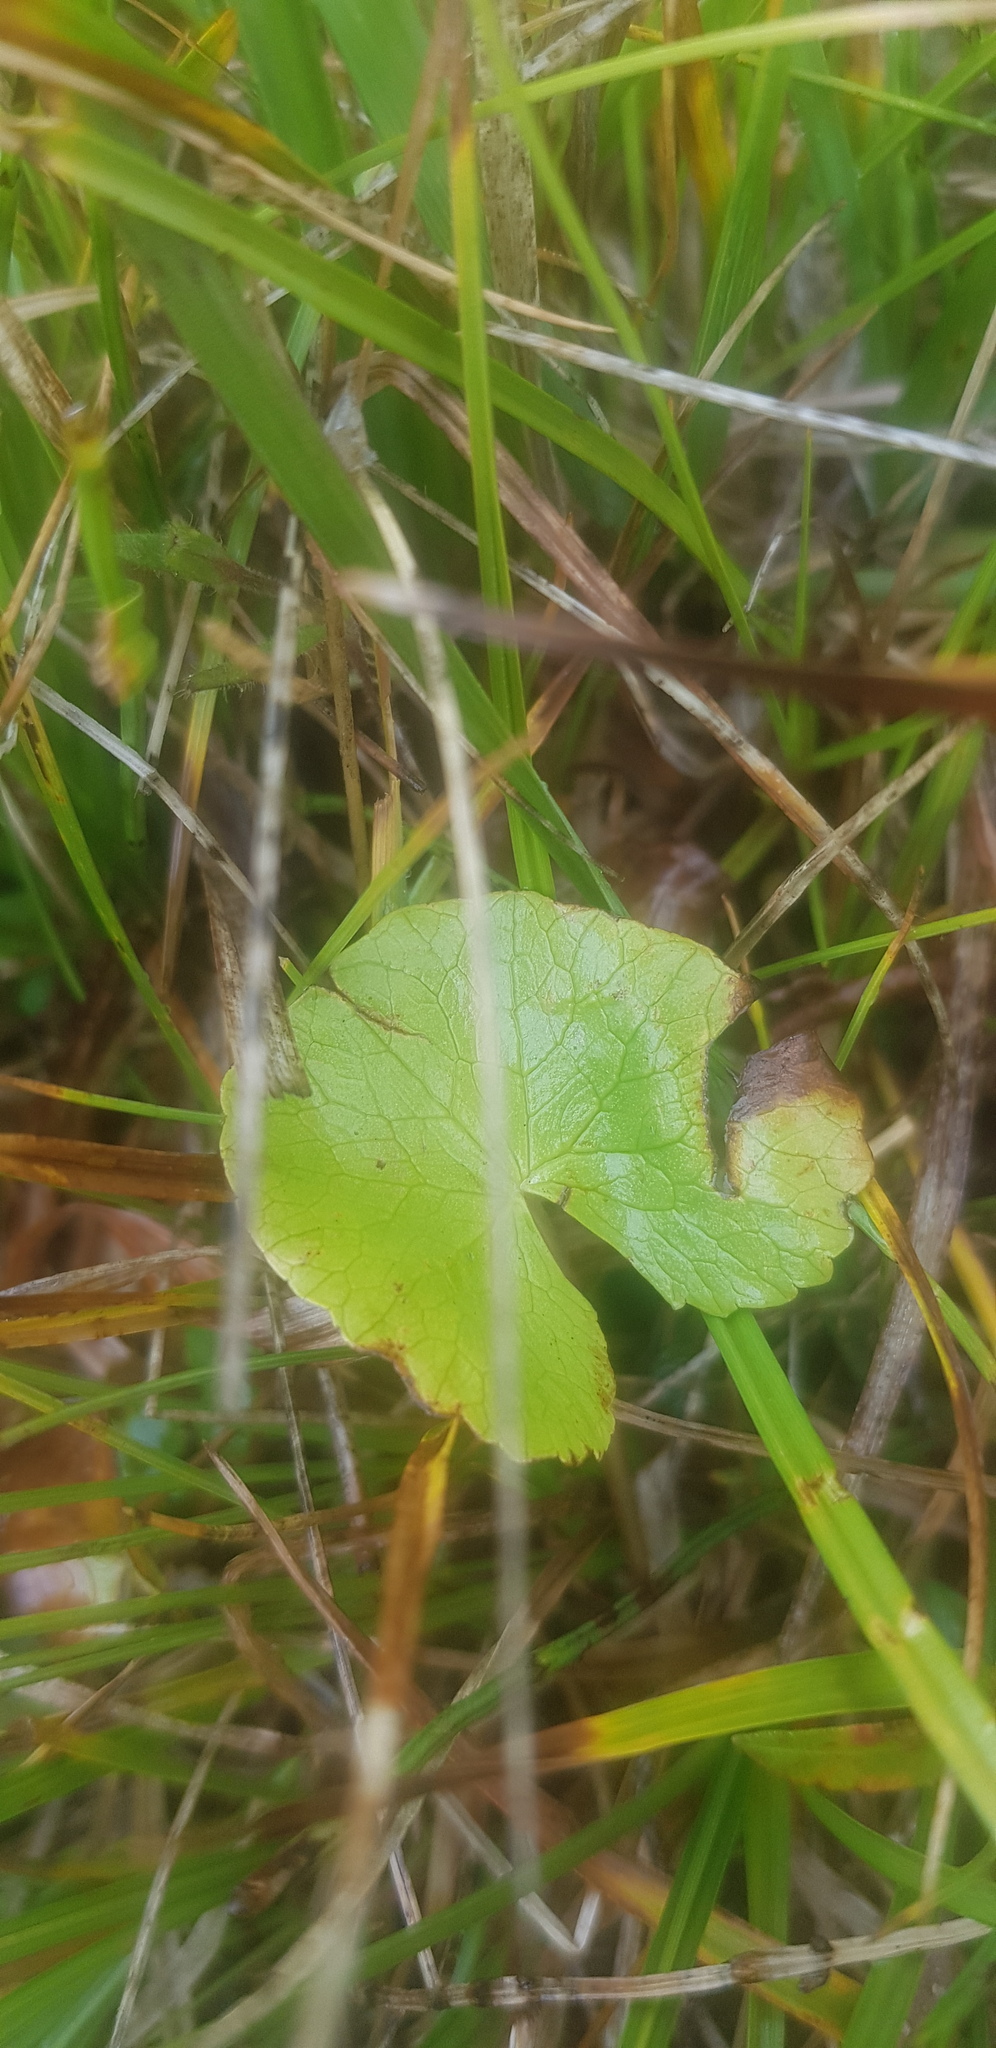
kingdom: Plantae
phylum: Tracheophyta
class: Magnoliopsida
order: Ranunculales
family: Ranunculaceae
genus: Caltha
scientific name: Caltha palustris
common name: Marsh marigold
